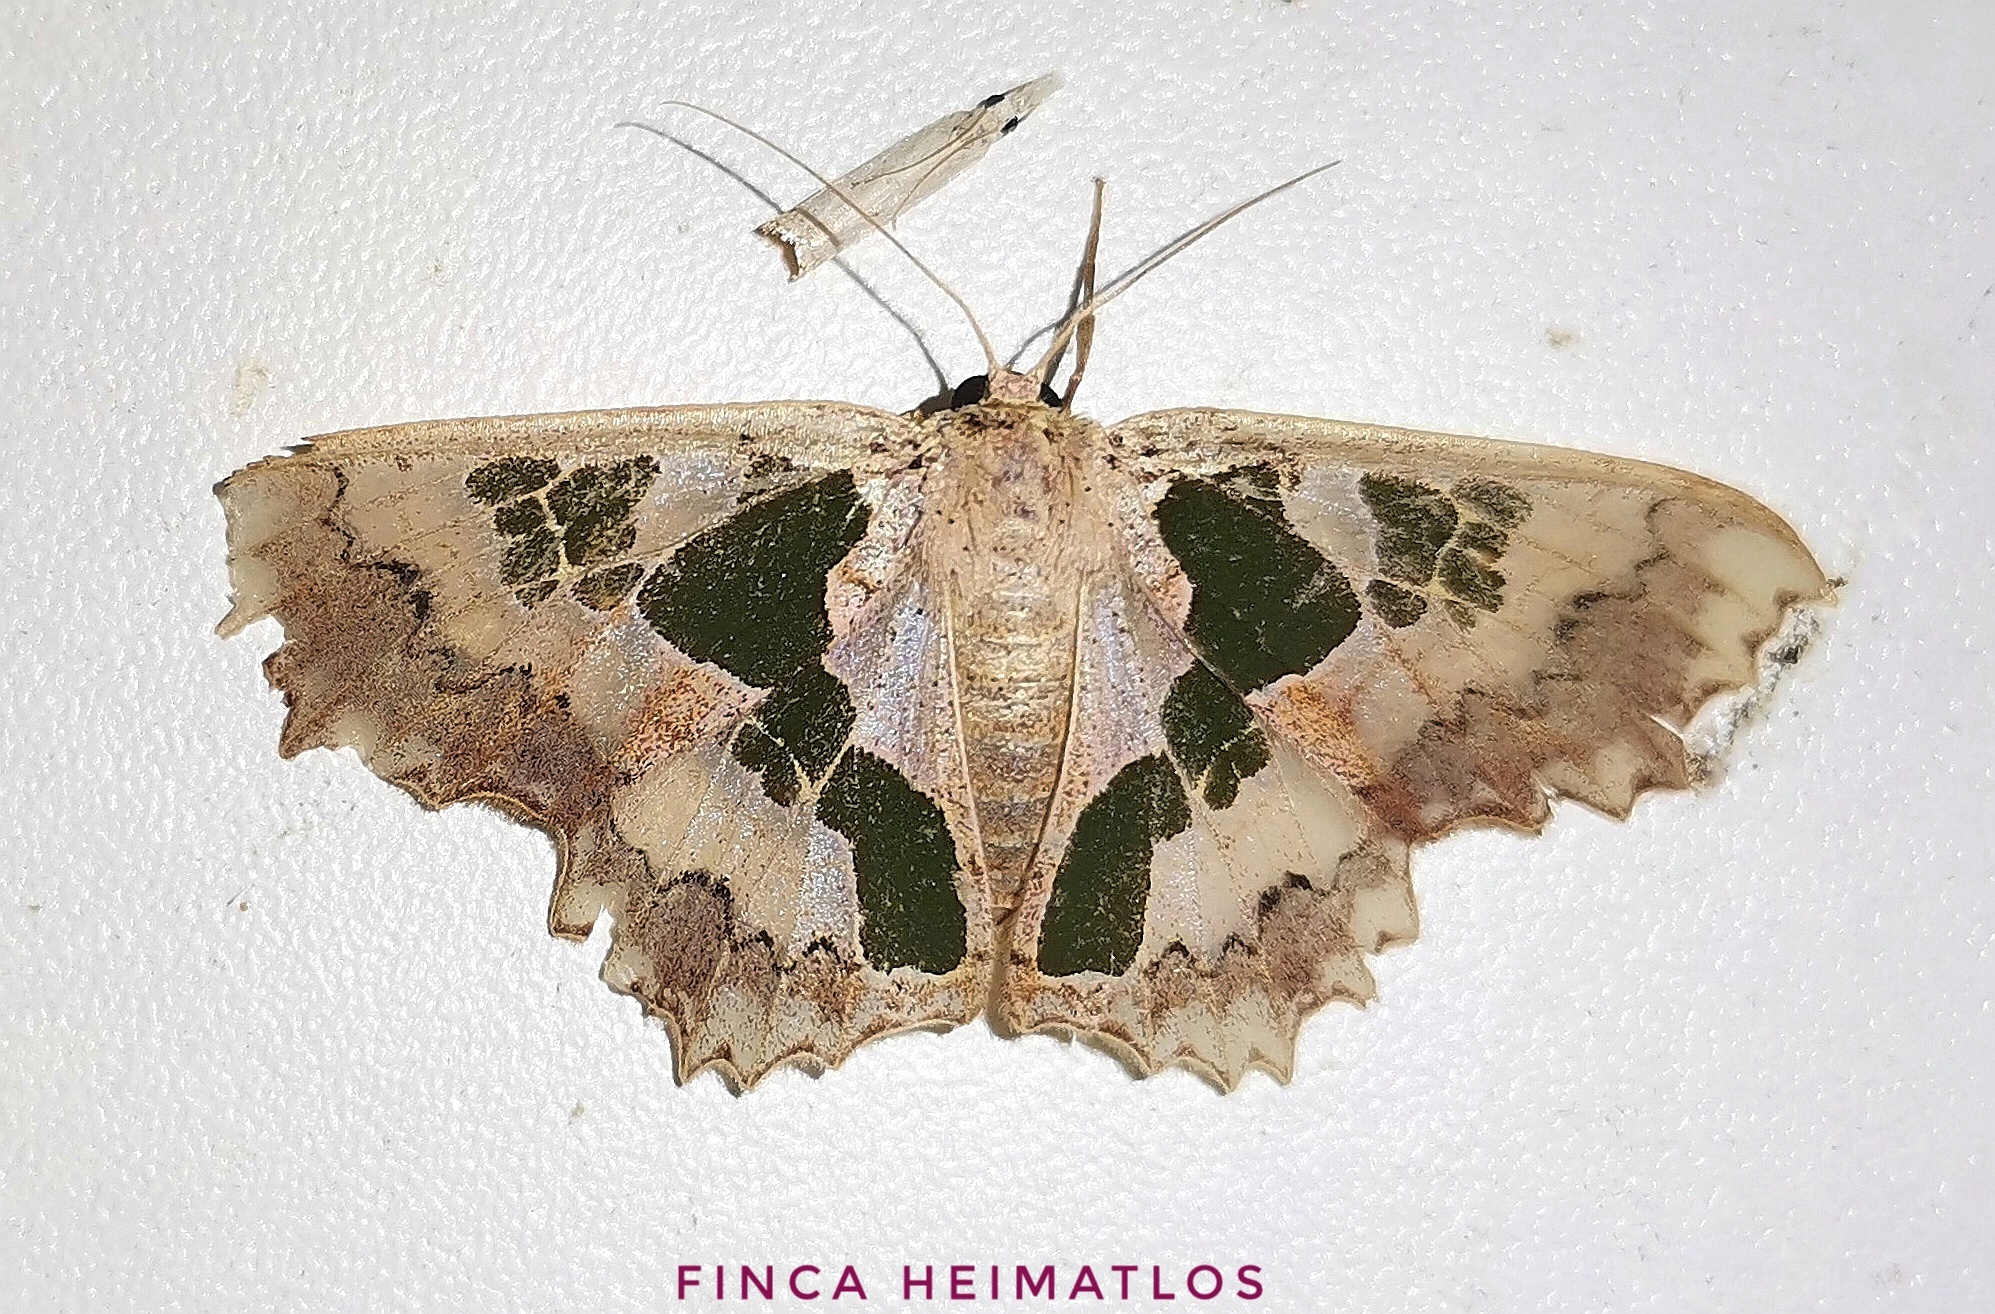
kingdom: Animalia
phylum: Arthropoda
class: Insecta
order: Lepidoptera
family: Geometridae
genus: Trygodes
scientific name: Trygodes viridiplena
